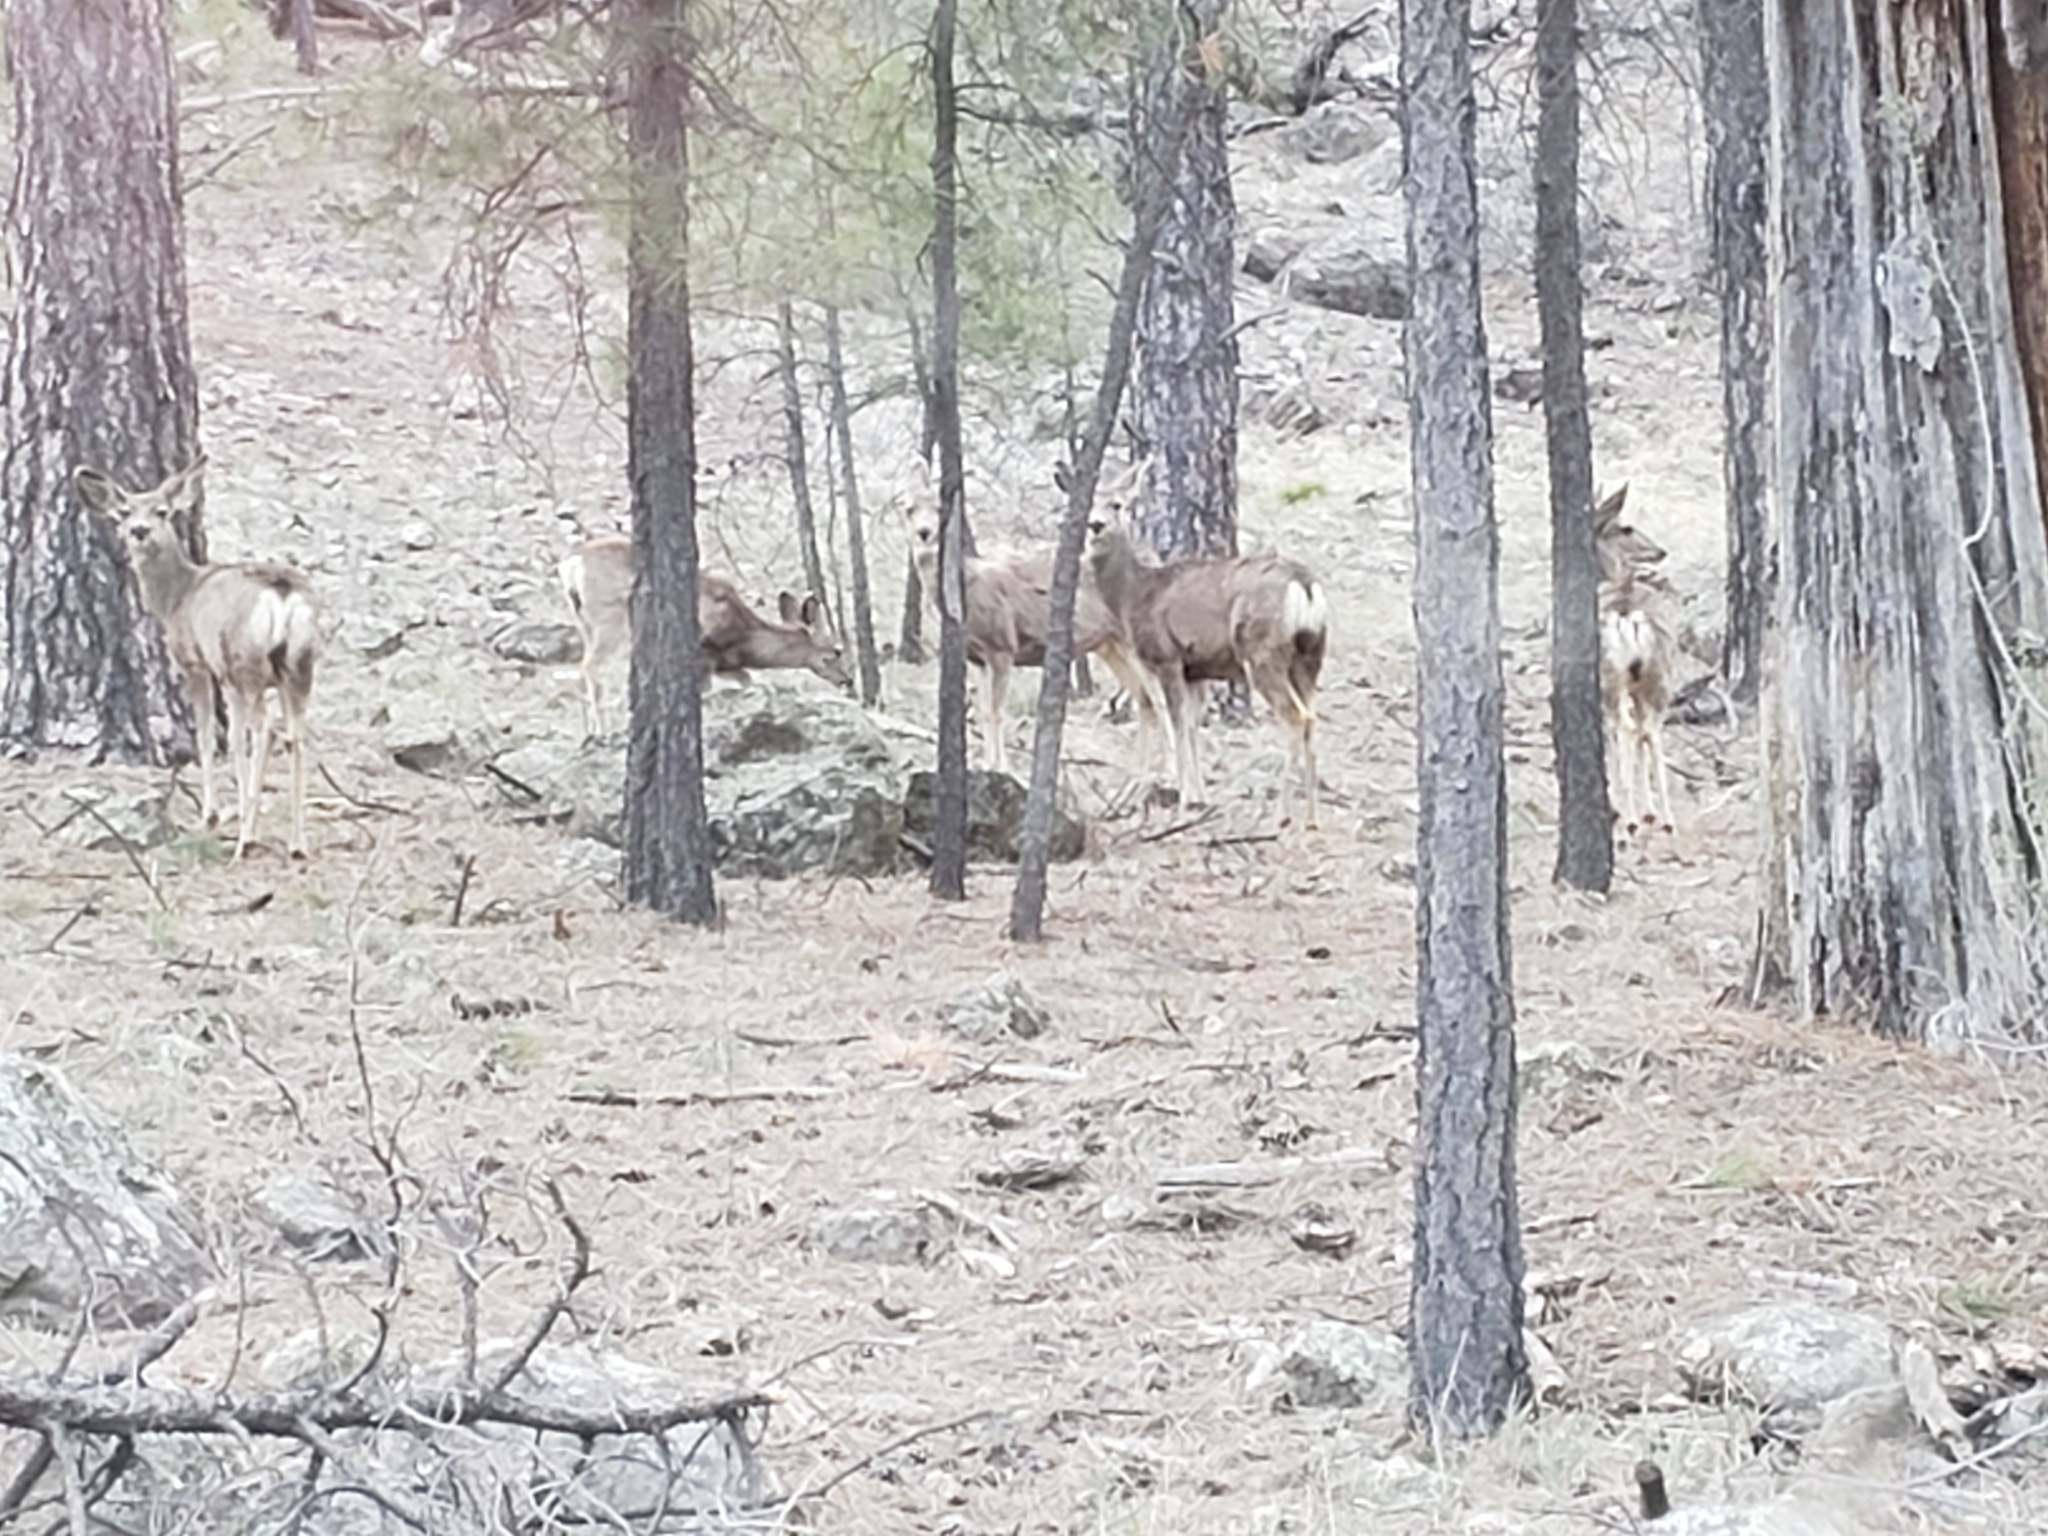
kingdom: Animalia
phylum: Chordata
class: Mammalia
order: Artiodactyla
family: Cervidae
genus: Odocoileus
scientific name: Odocoileus hemionus
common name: Mule deer
